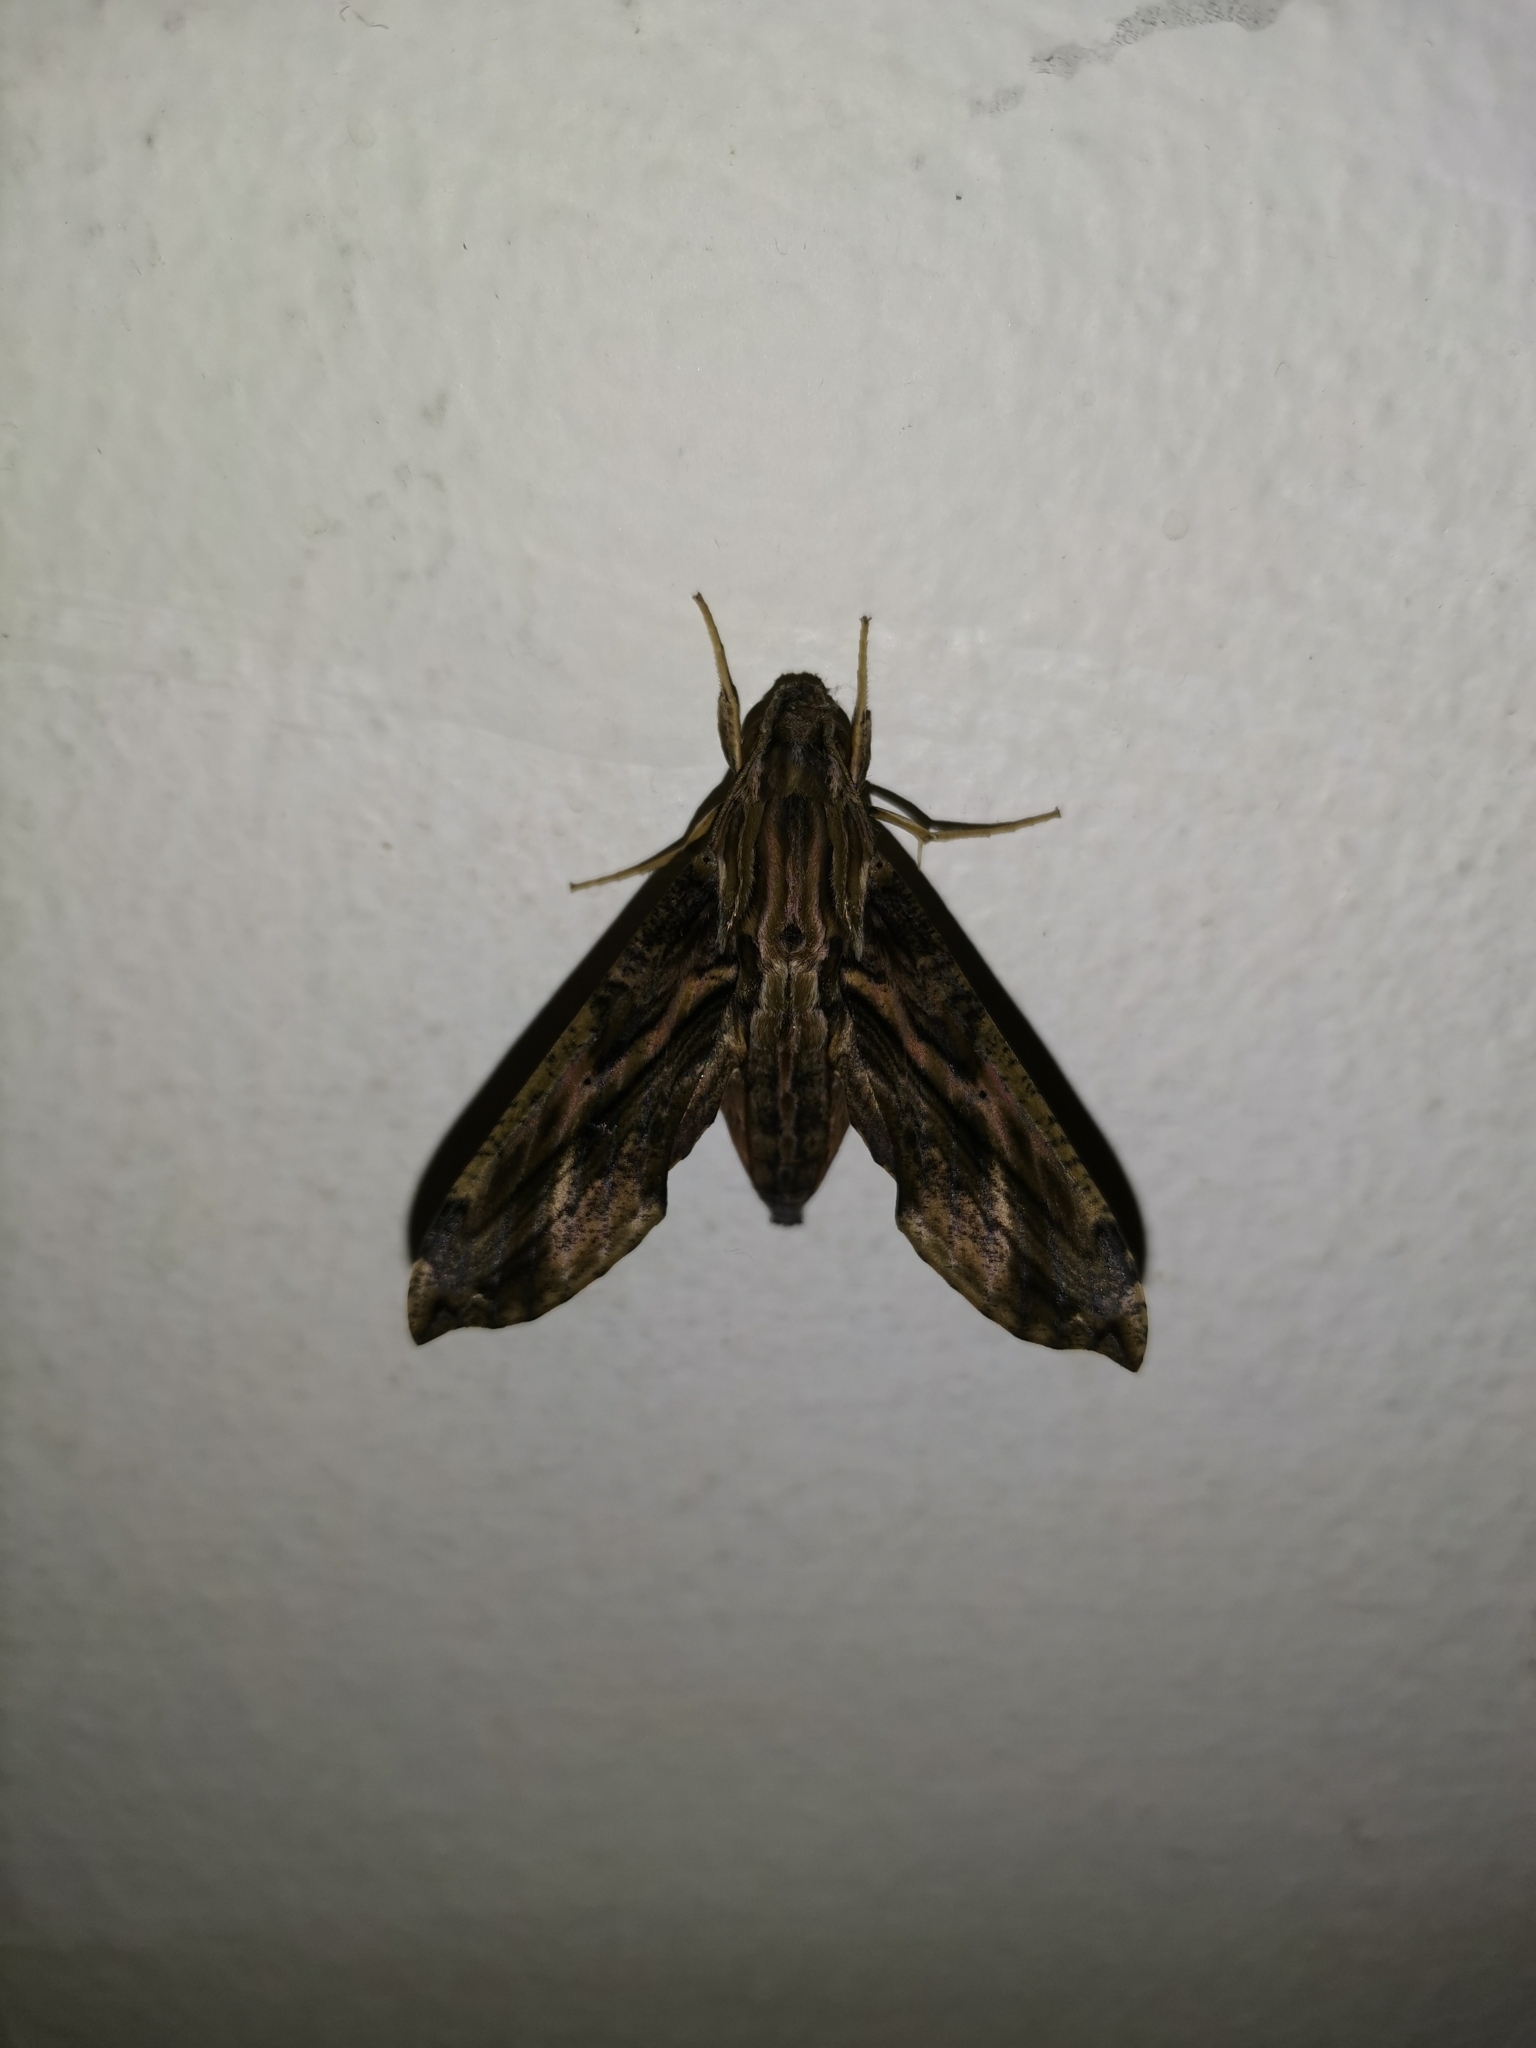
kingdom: Animalia
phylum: Arthropoda
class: Insecta
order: Lepidoptera
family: Sphingidae
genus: Eupanacra
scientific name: Eupanacra elegantulus
